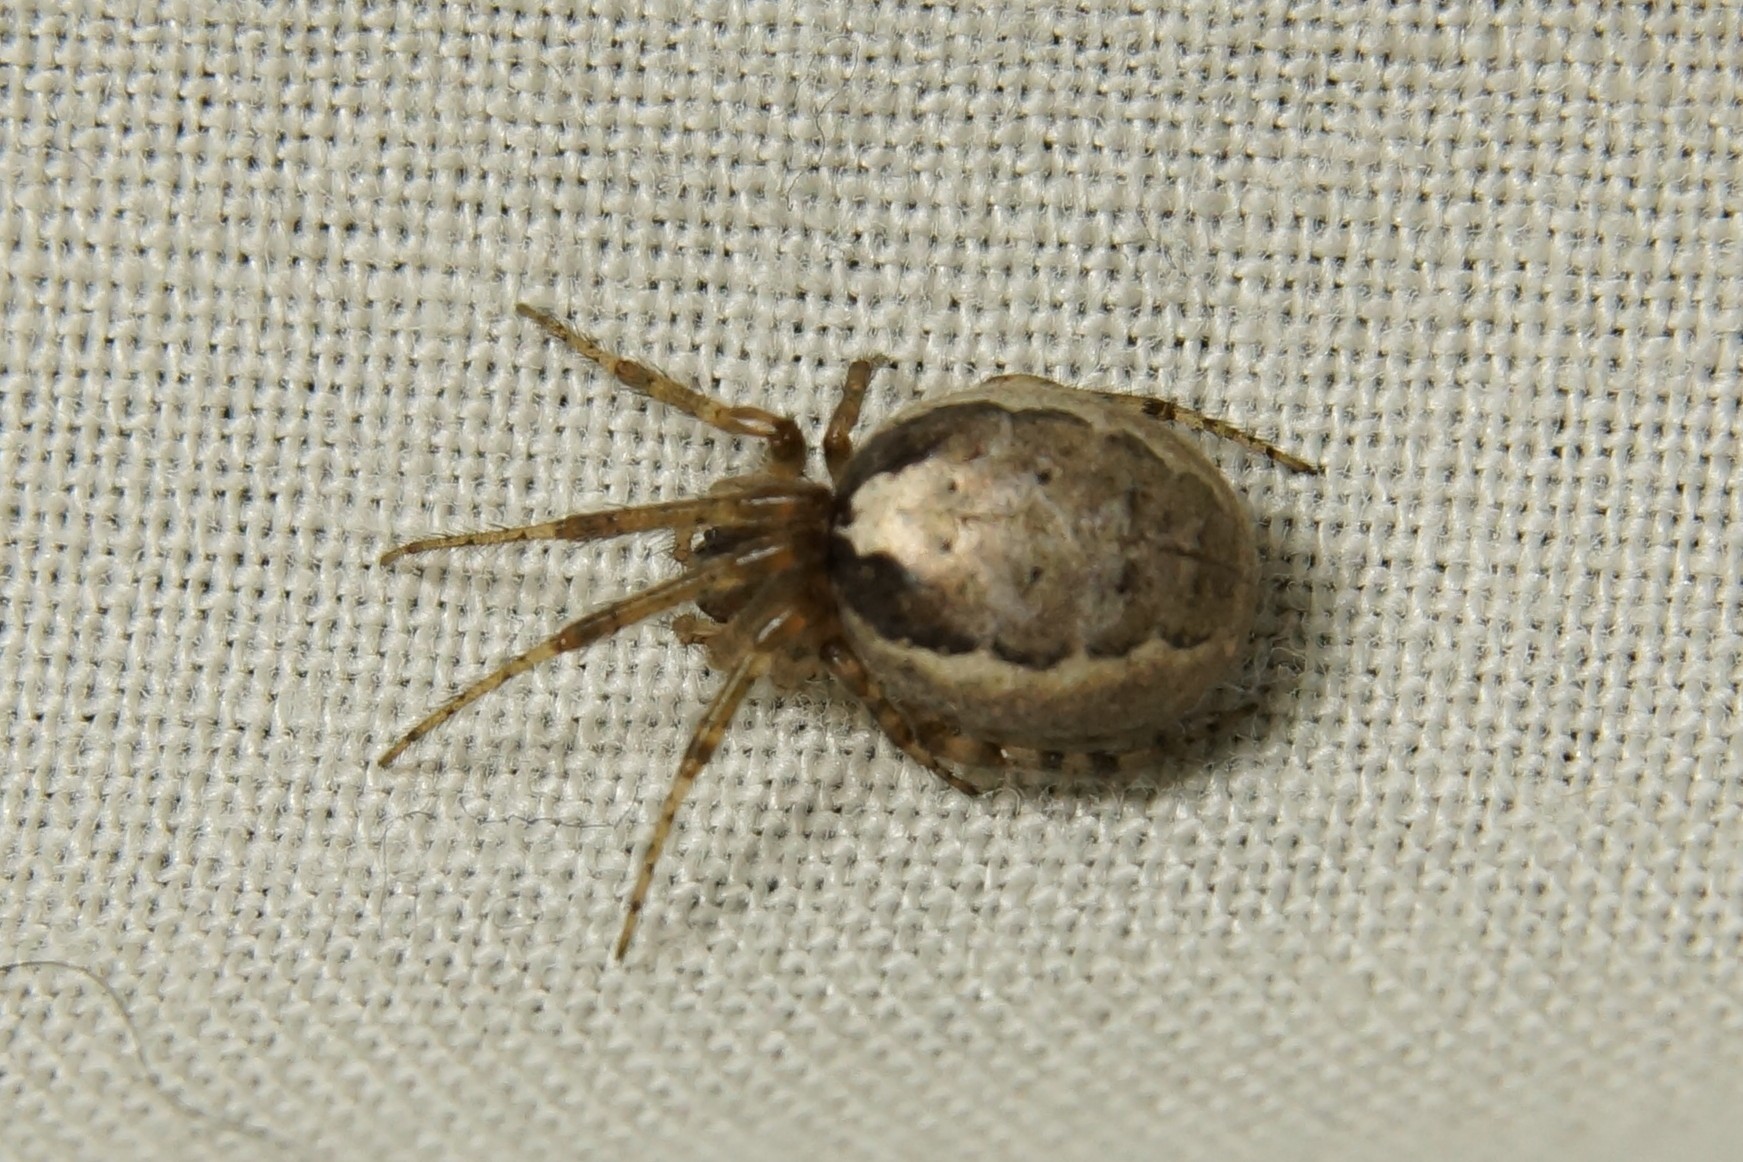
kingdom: Animalia
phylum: Arthropoda
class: Arachnida
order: Araneae
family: Araneidae
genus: Zygiella
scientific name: Zygiella x-notata
